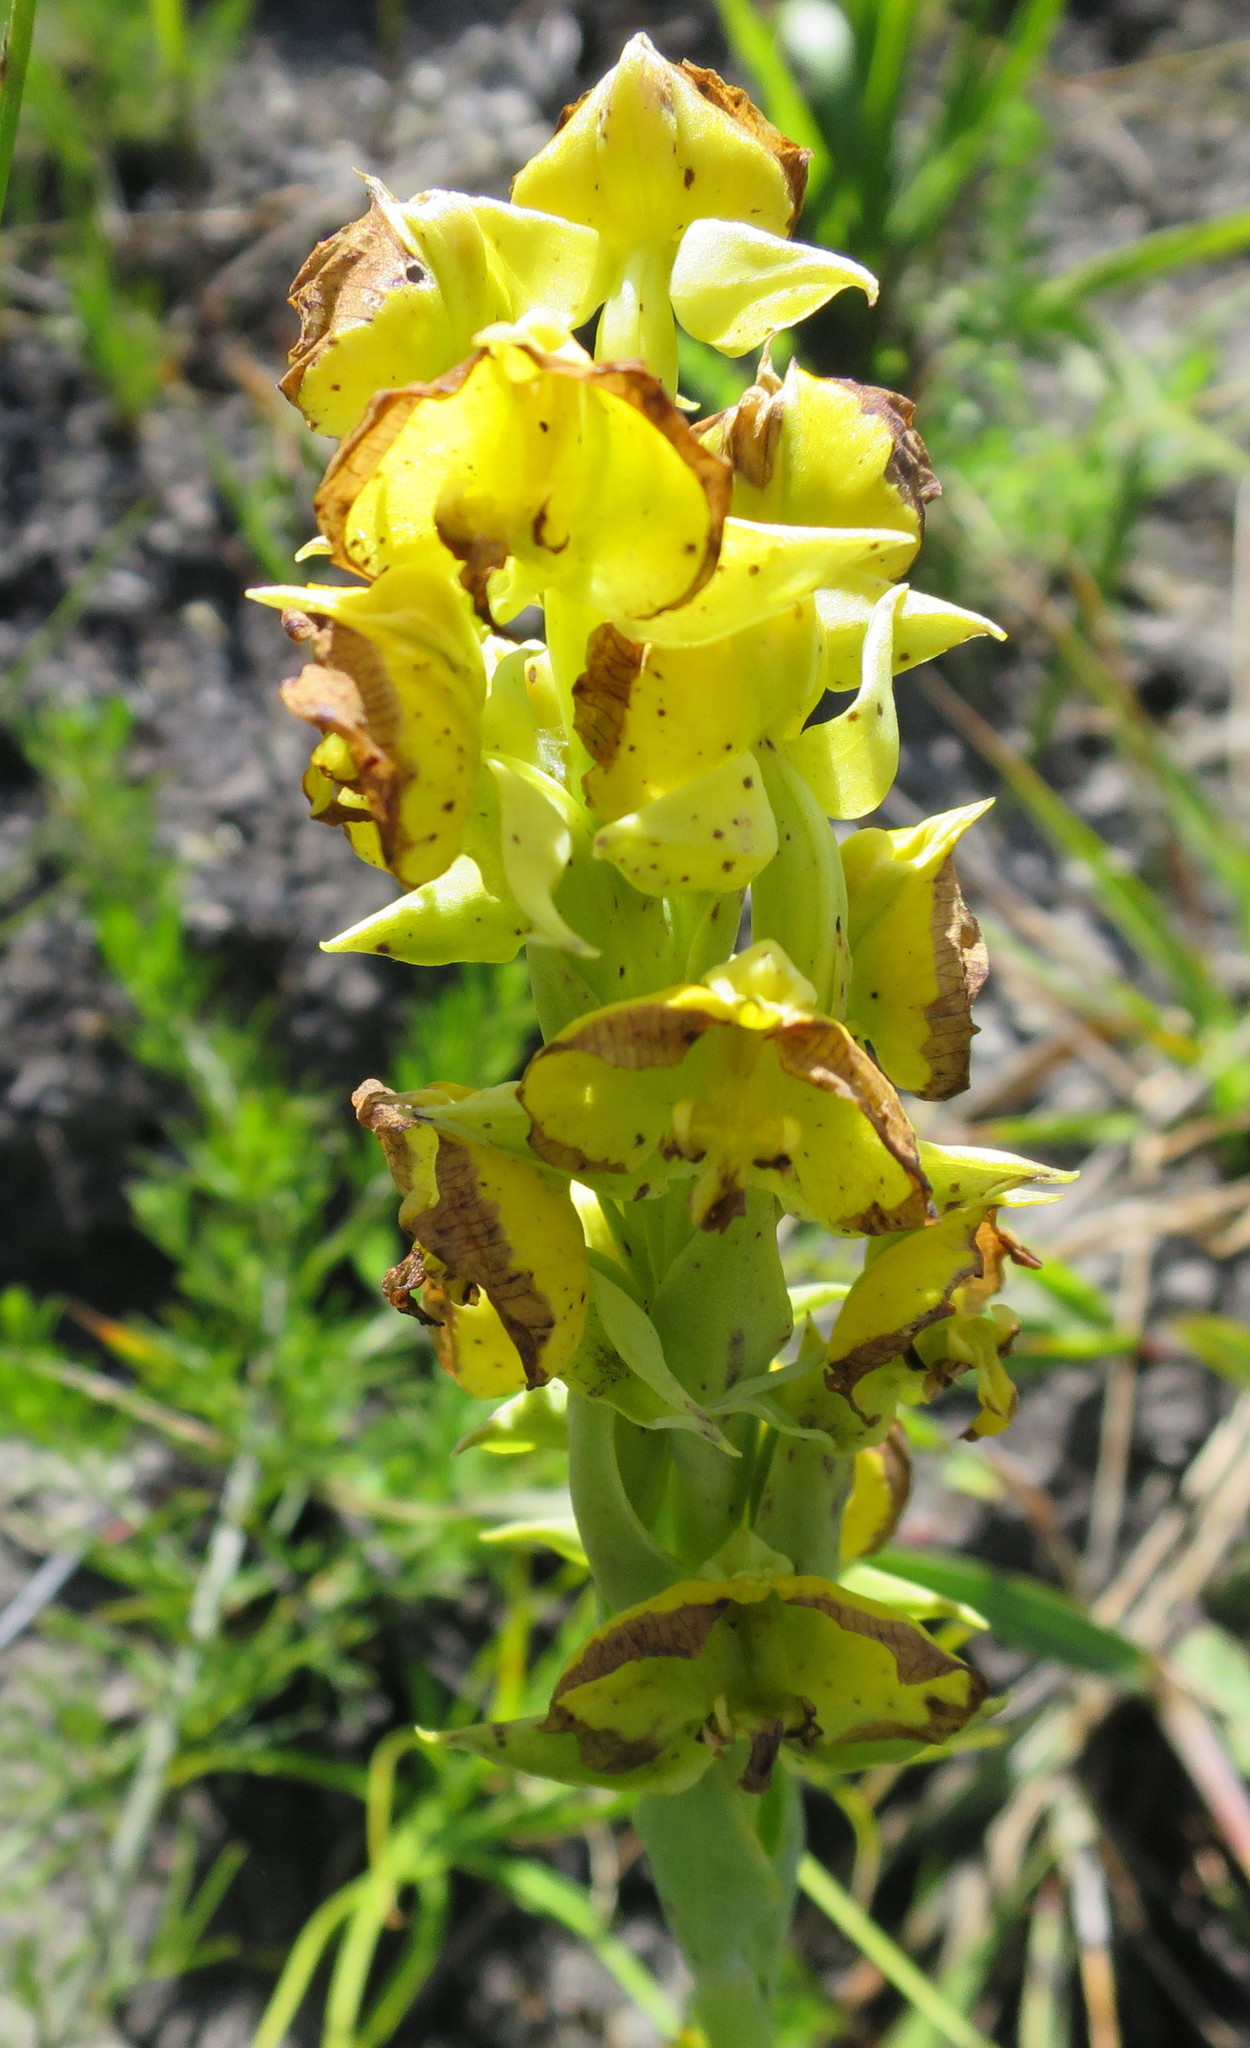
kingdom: Plantae
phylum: Tracheophyta
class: Liliopsida
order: Asparagales
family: Orchidaceae
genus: Pterygodium
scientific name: Pterygodium acutifolium
